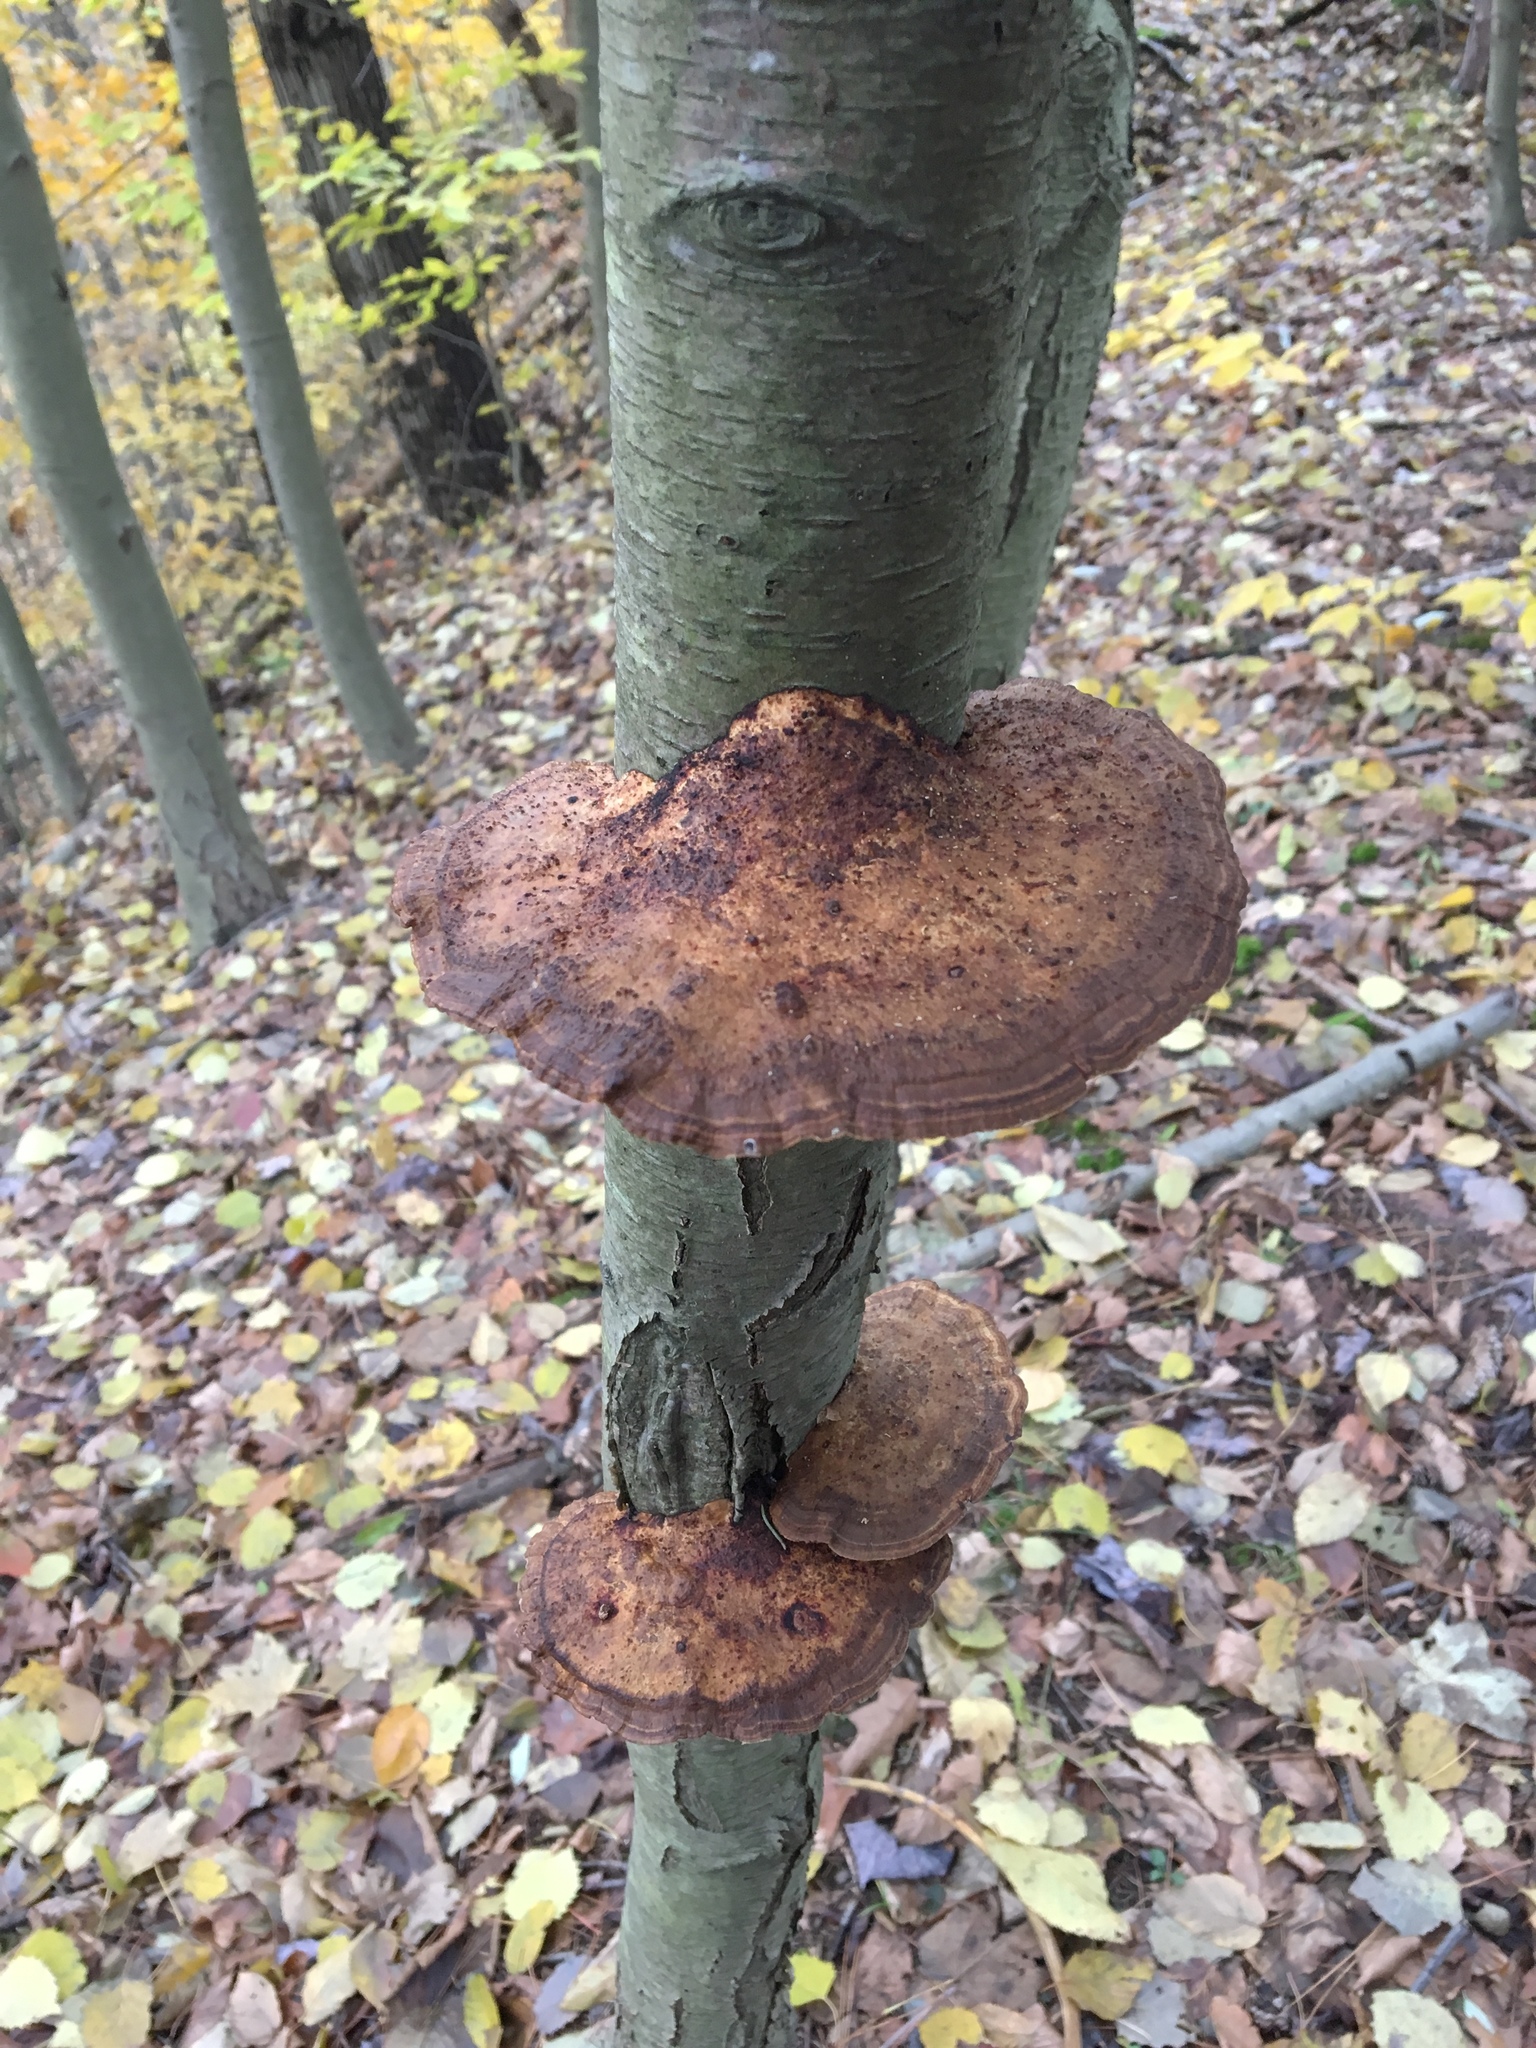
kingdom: Fungi
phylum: Basidiomycota
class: Agaricomycetes
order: Polyporales
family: Polyporaceae
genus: Daedaleopsis
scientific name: Daedaleopsis confragosa
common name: Blushing bracket
